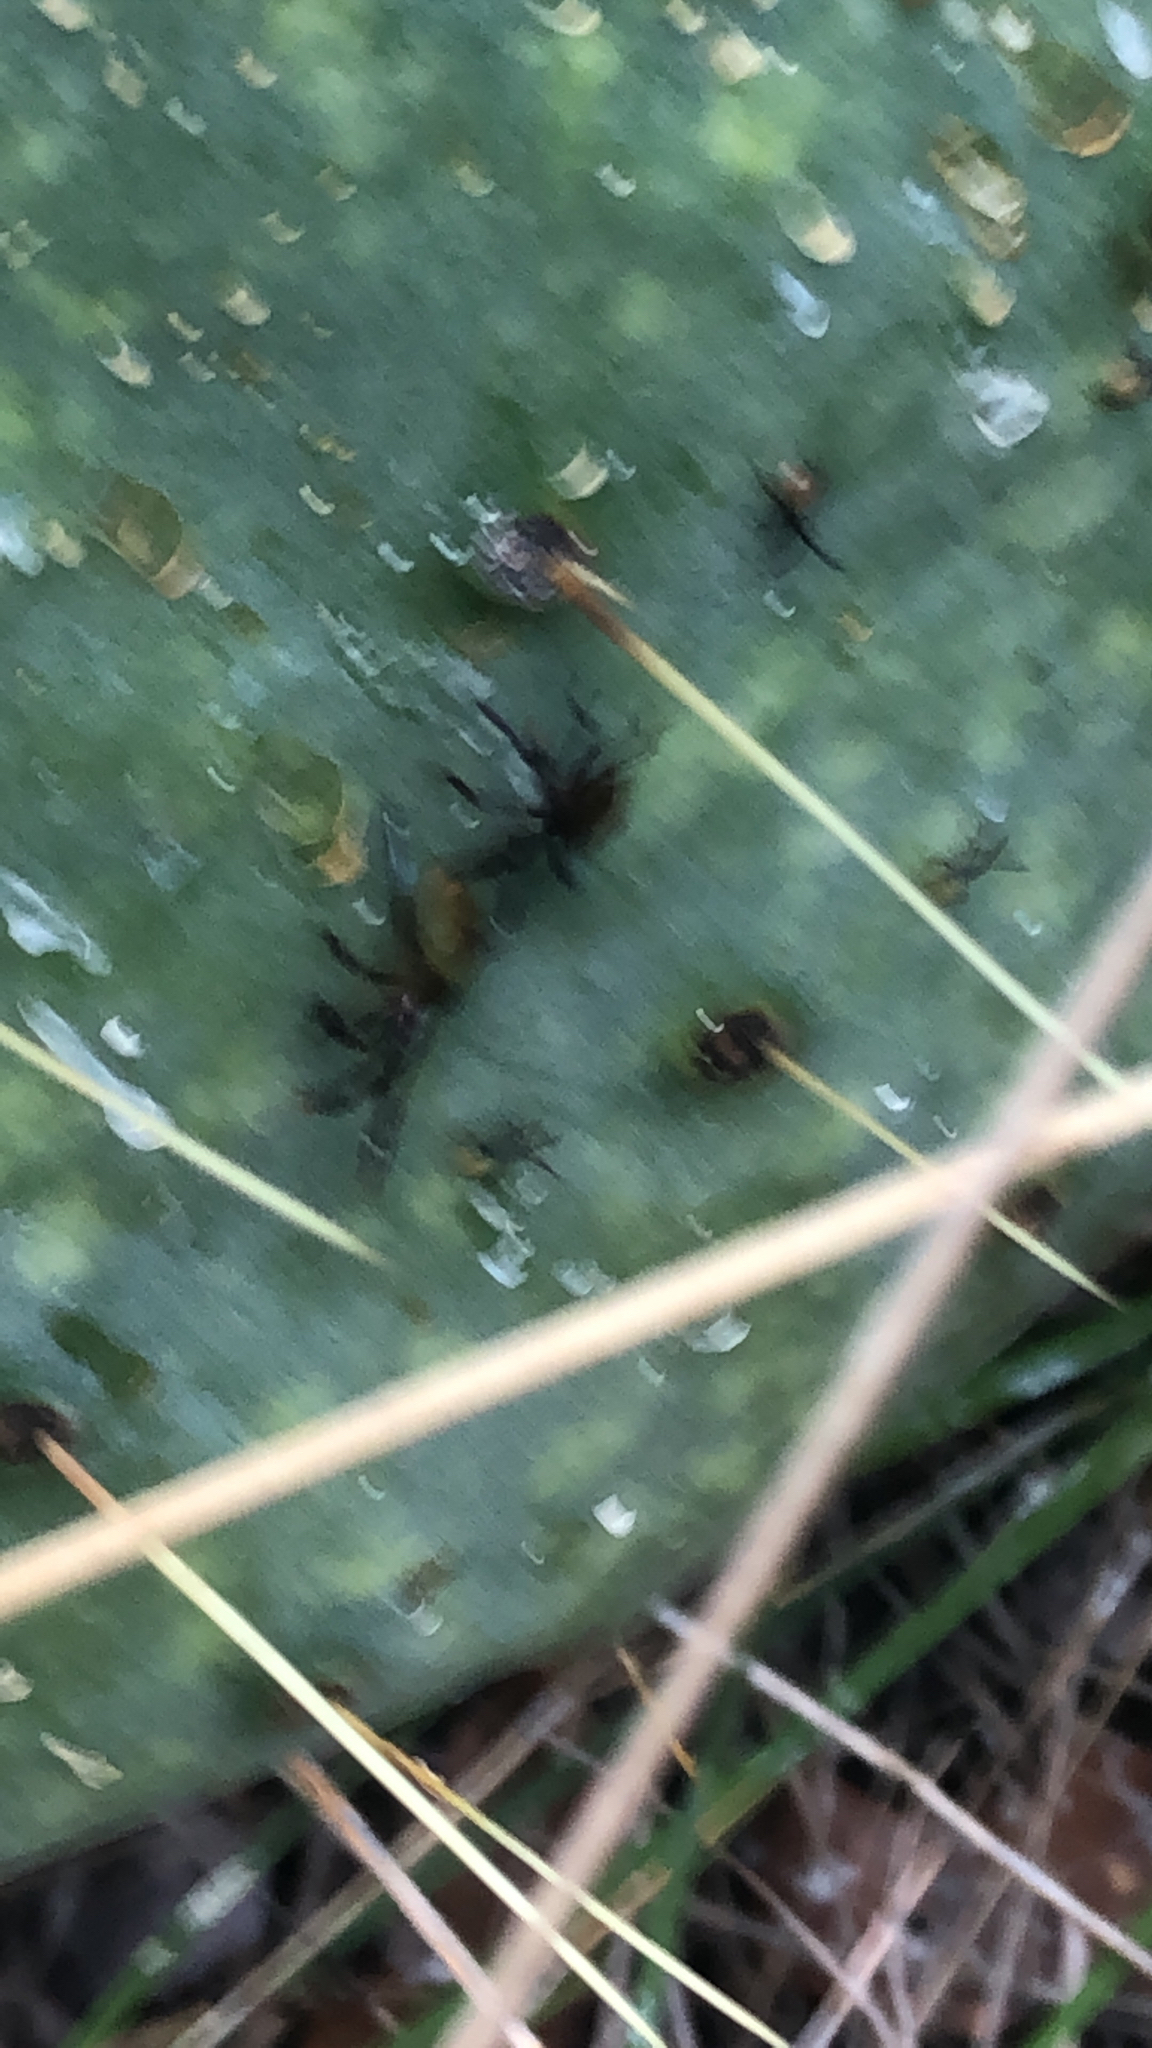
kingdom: Animalia
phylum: Arthropoda
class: Insecta
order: Hemiptera
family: Coreidae
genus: Chelinidea
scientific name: Chelinidea vittiger
